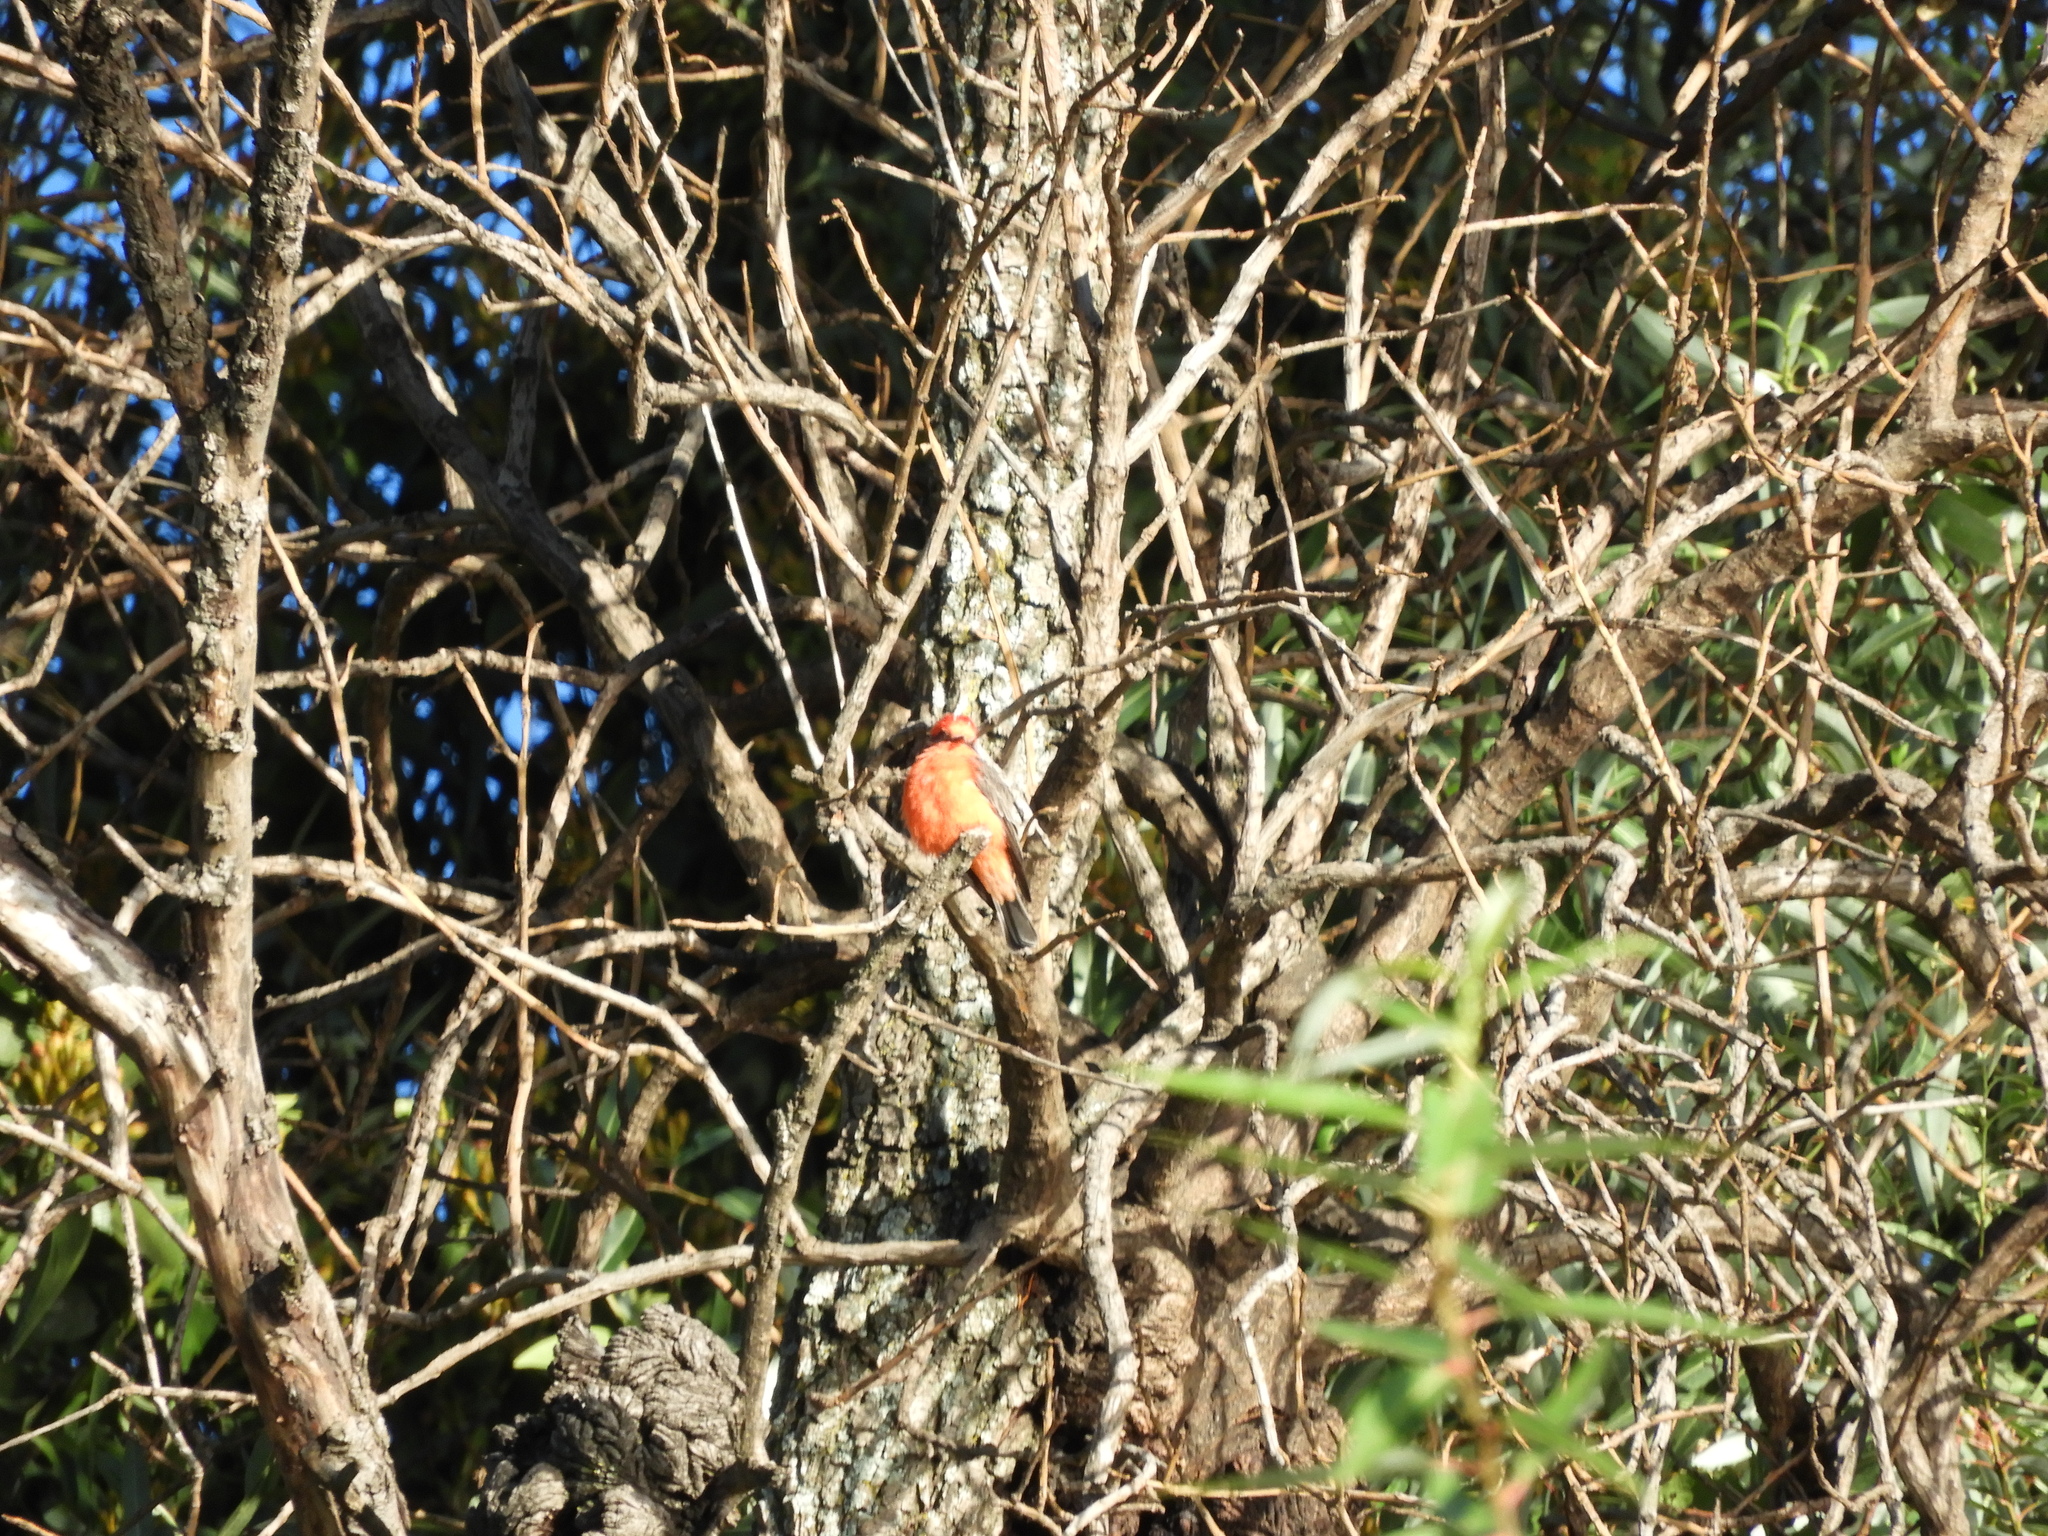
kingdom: Animalia
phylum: Chordata
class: Aves
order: Passeriformes
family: Tyrannidae
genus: Pyrocephalus
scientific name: Pyrocephalus rubinus
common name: Vermilion flycatcher
